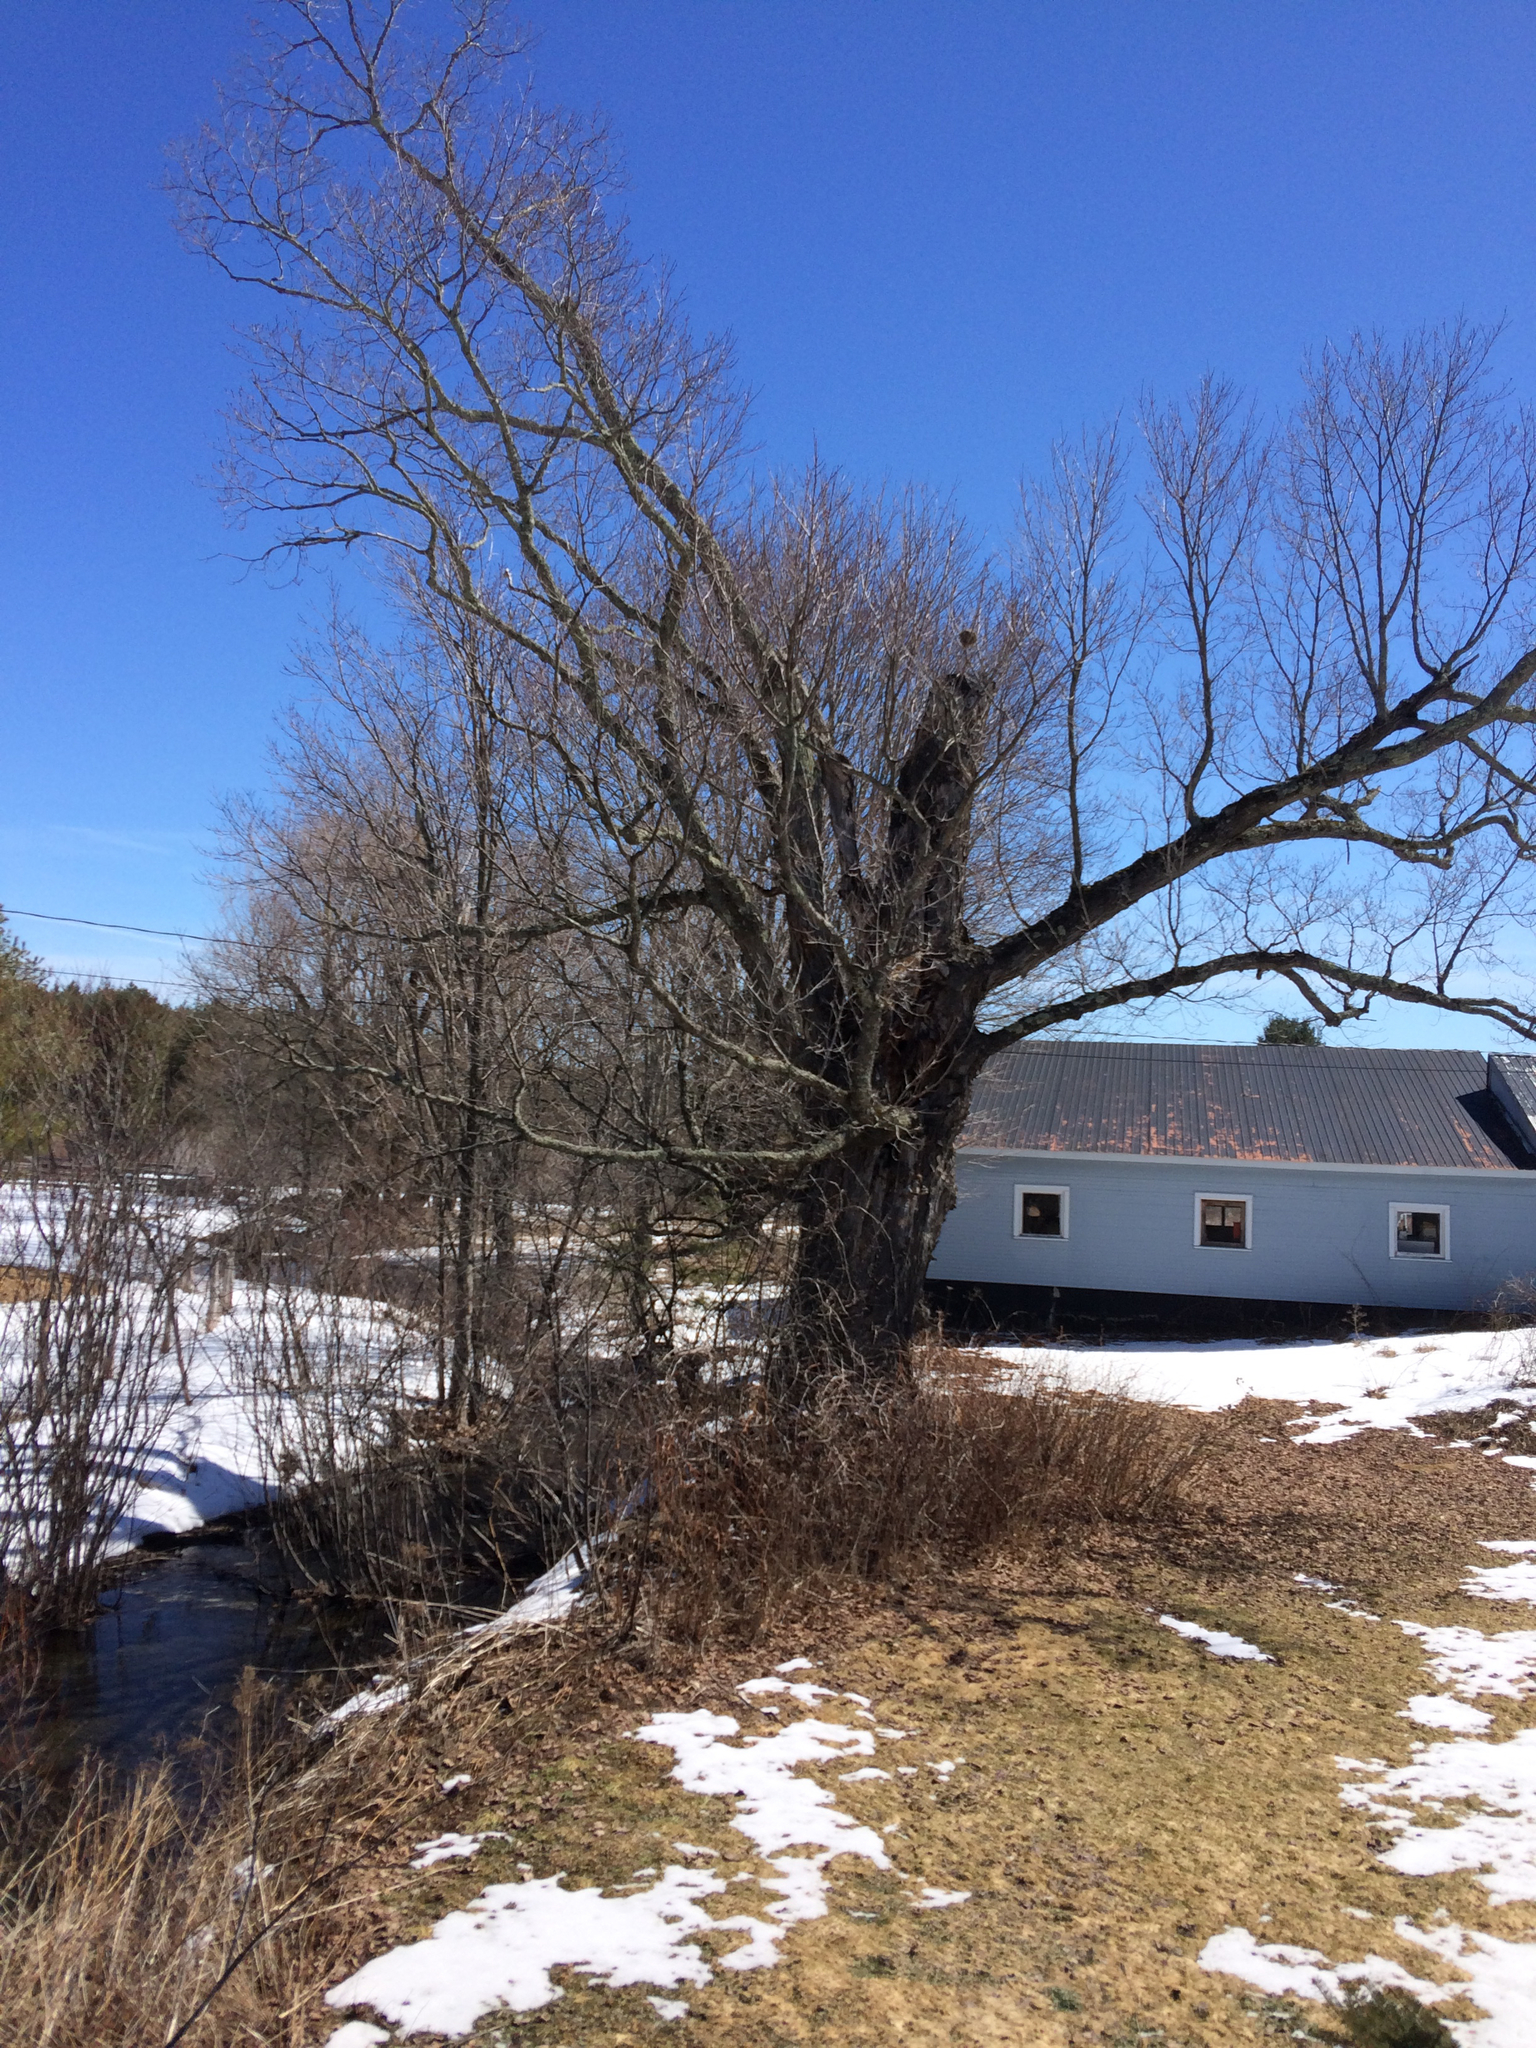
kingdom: Plantae
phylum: Tracheophyta
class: Magnoliopsida
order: Sapindales
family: Sapindaceae
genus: Acer
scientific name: Acer saccharum
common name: Sugar maple
